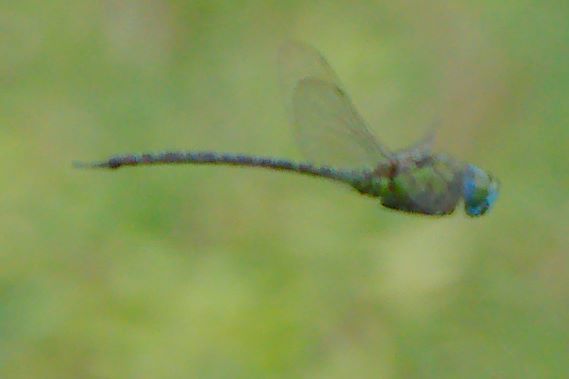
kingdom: Animalia
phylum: Arthropoda
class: Insecta
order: Odonata
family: Aeshnidae
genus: Coryphaeschna
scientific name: Coryphaeschna adnexa
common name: Blue-faced darner
